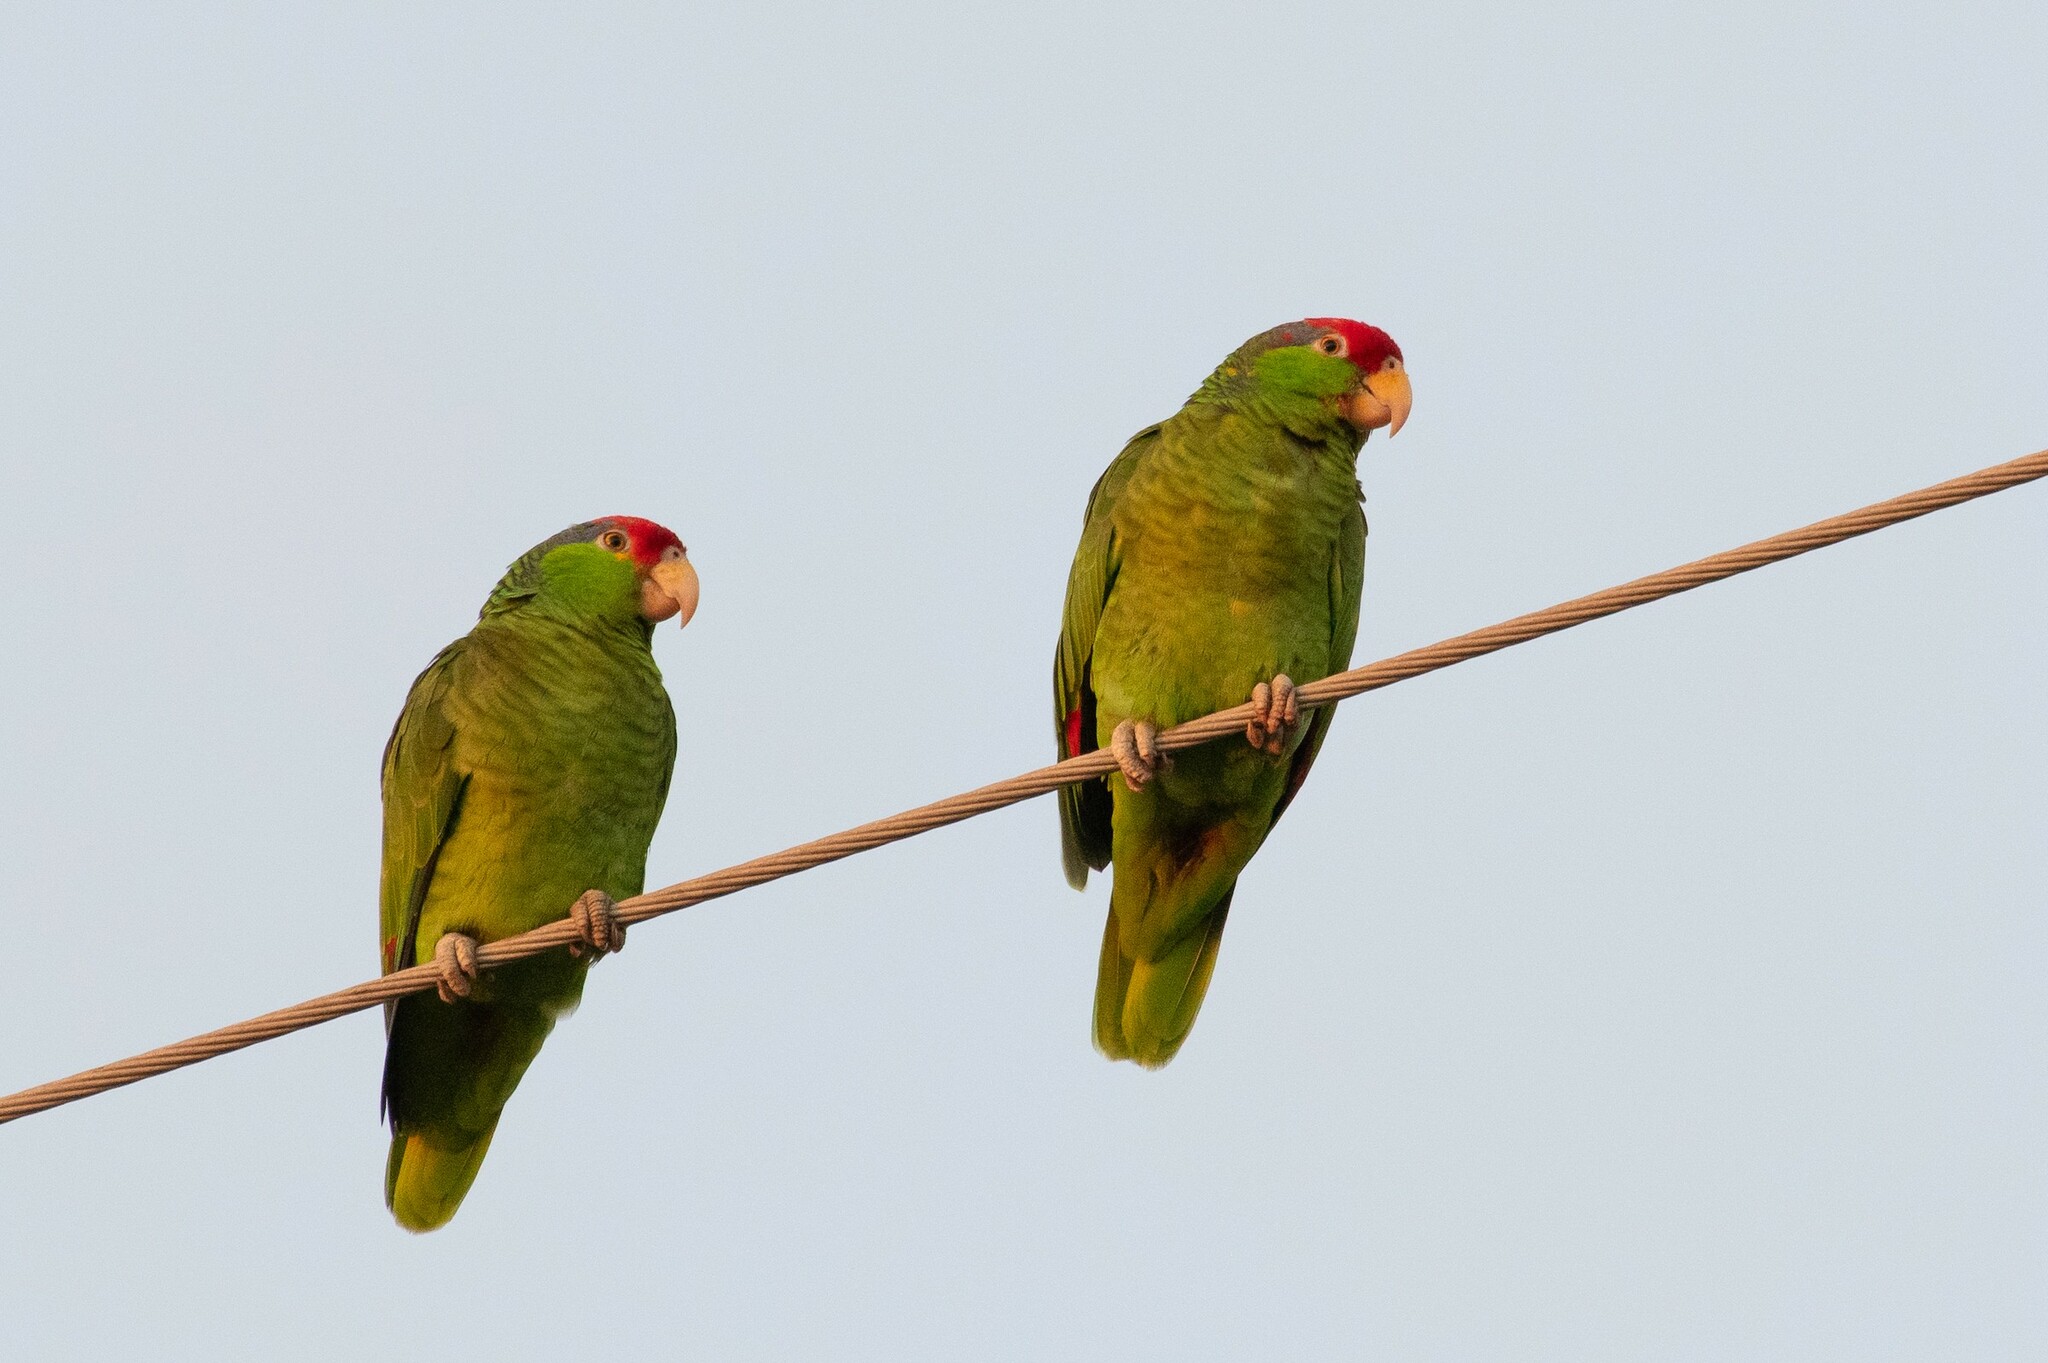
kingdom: Animalia
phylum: Chordata
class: Aves
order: Psittaciformes
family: Psittacidae
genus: Amazona
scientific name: Amazona viridigenalis
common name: Red-crowned amazon
